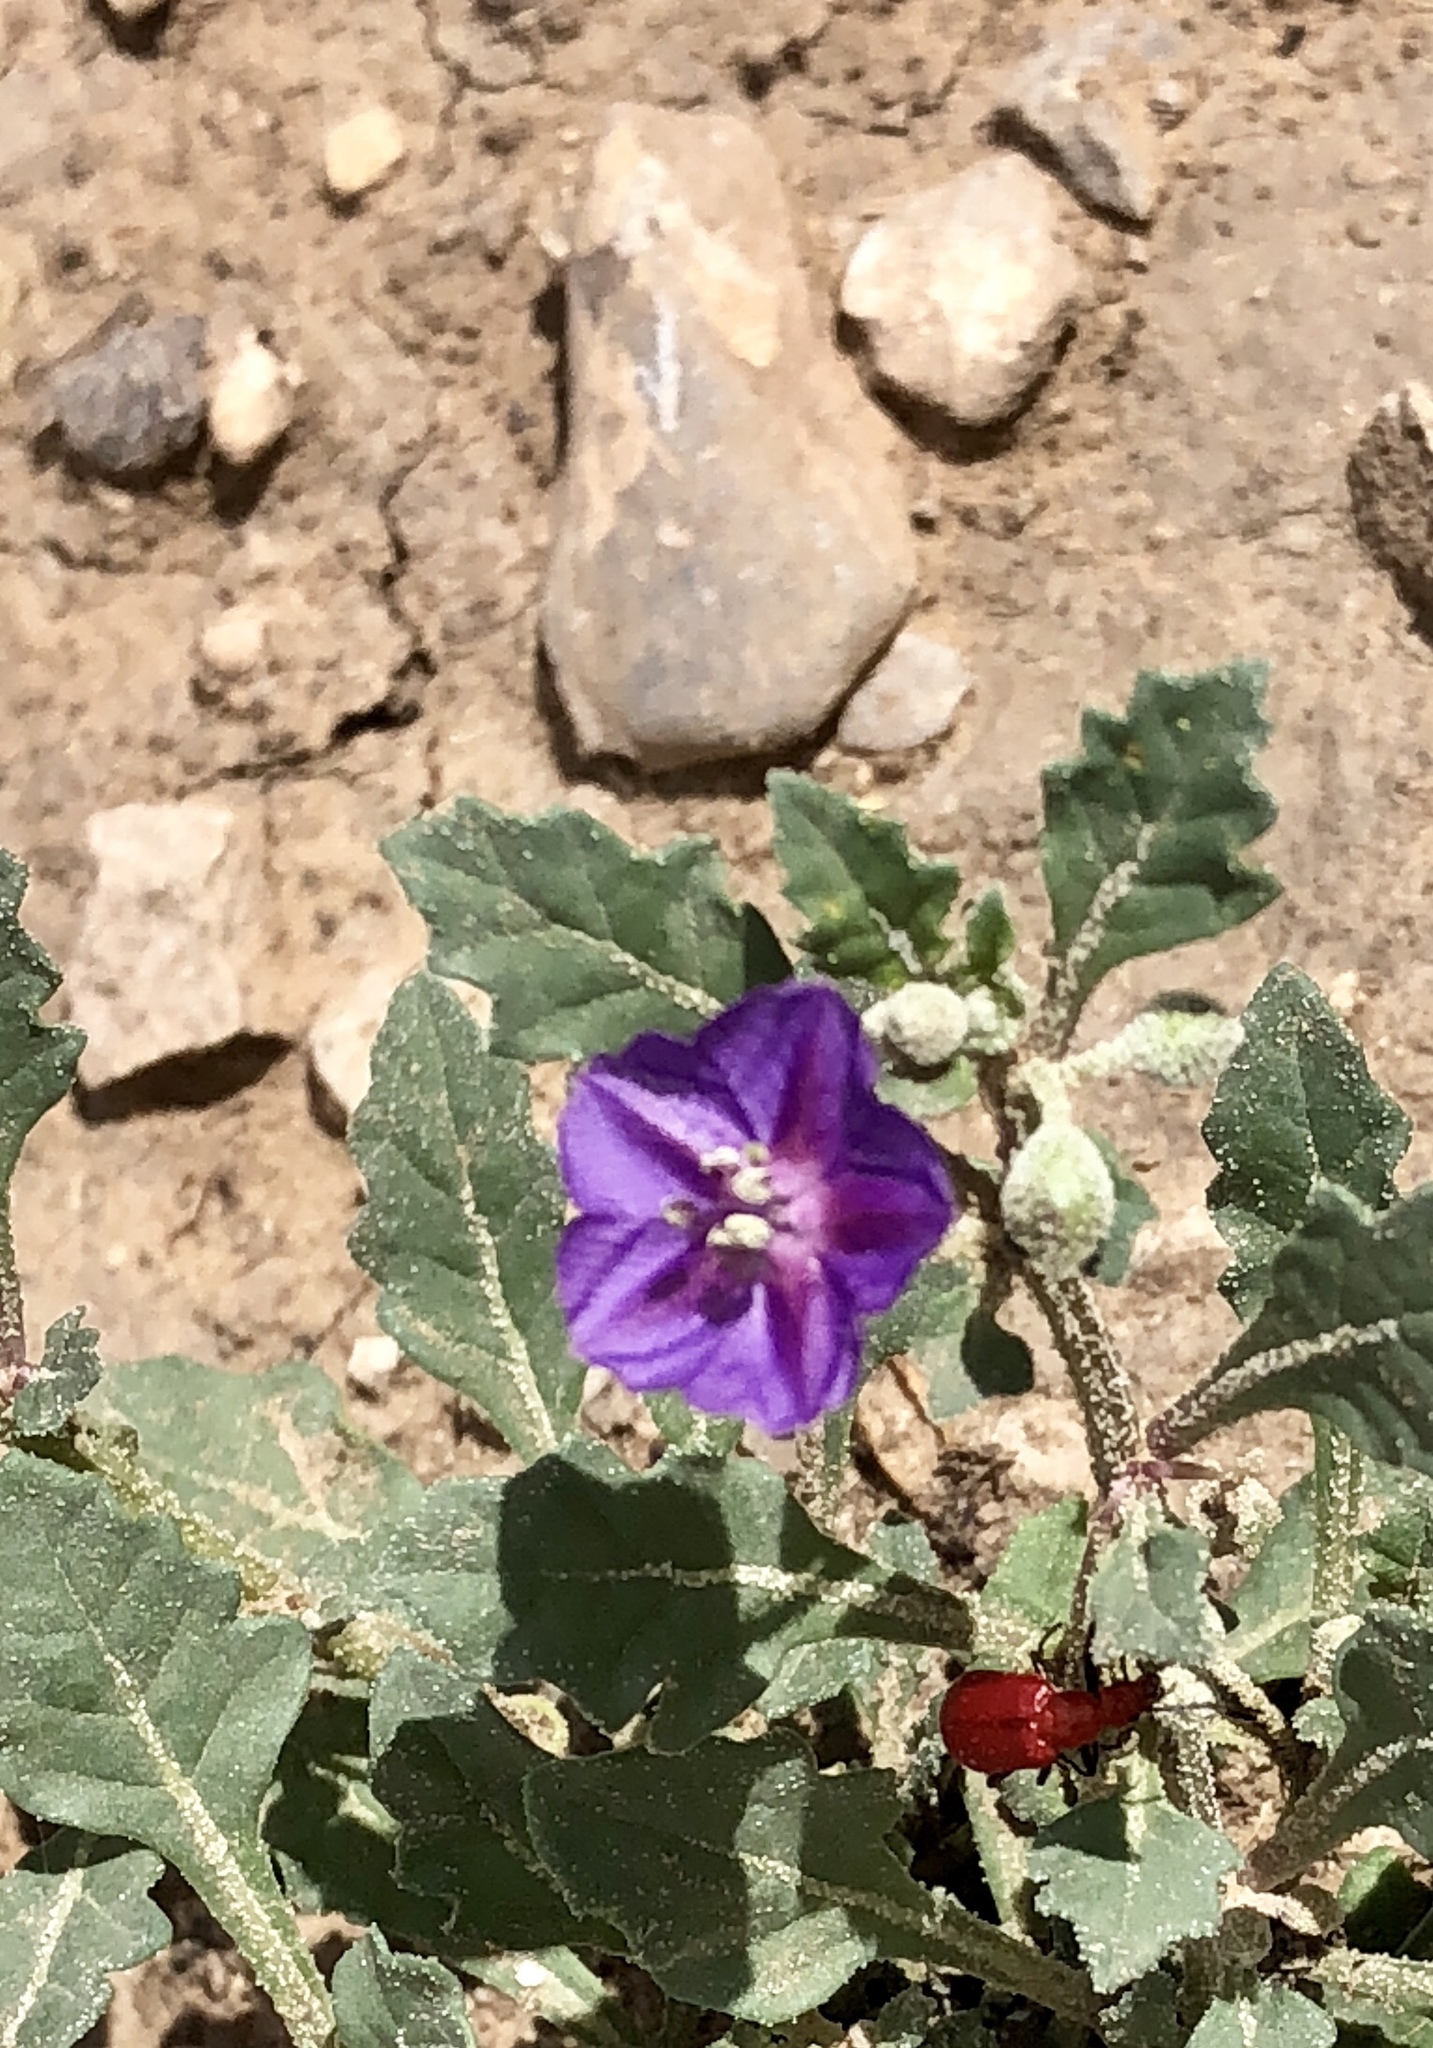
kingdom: Plantae
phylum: Tracheophyta
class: Magnoliopsida
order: Solanales
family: Solanaceae
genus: Quincula
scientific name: Quincula lobata
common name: Purple-ground-cherry
